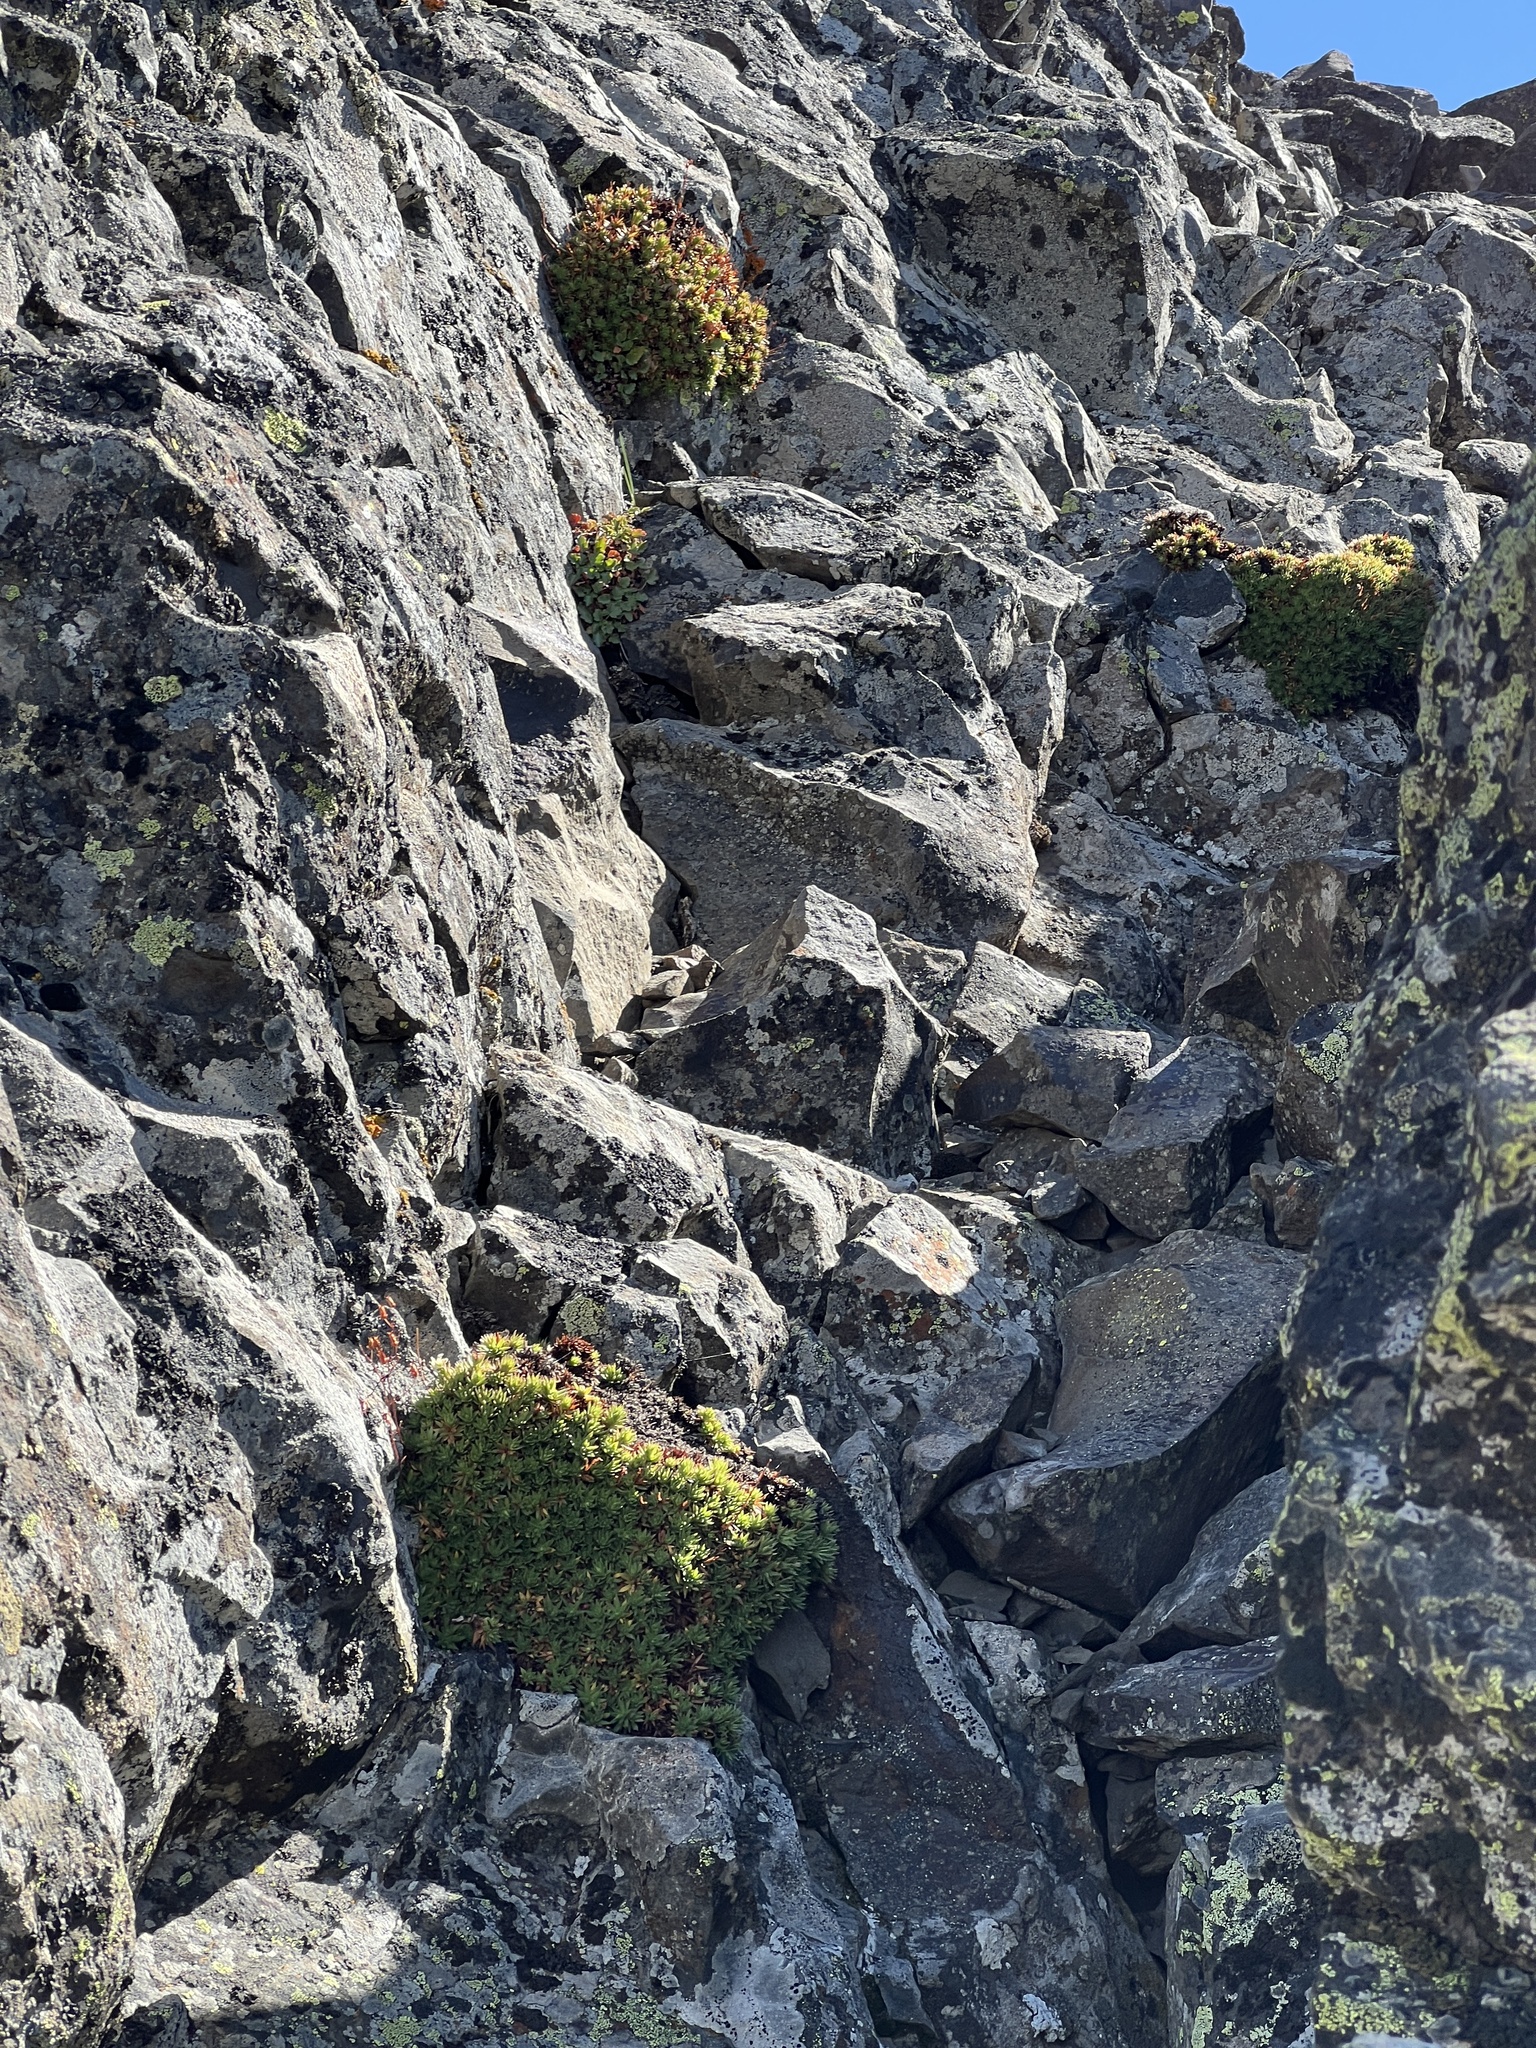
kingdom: Plantae
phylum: Tracheophyta
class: Magnoliopsida
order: Saxifragales
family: Saxifragaceae
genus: Saxifraga
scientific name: Saxifraga bronchialis
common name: Matted saxifrage
